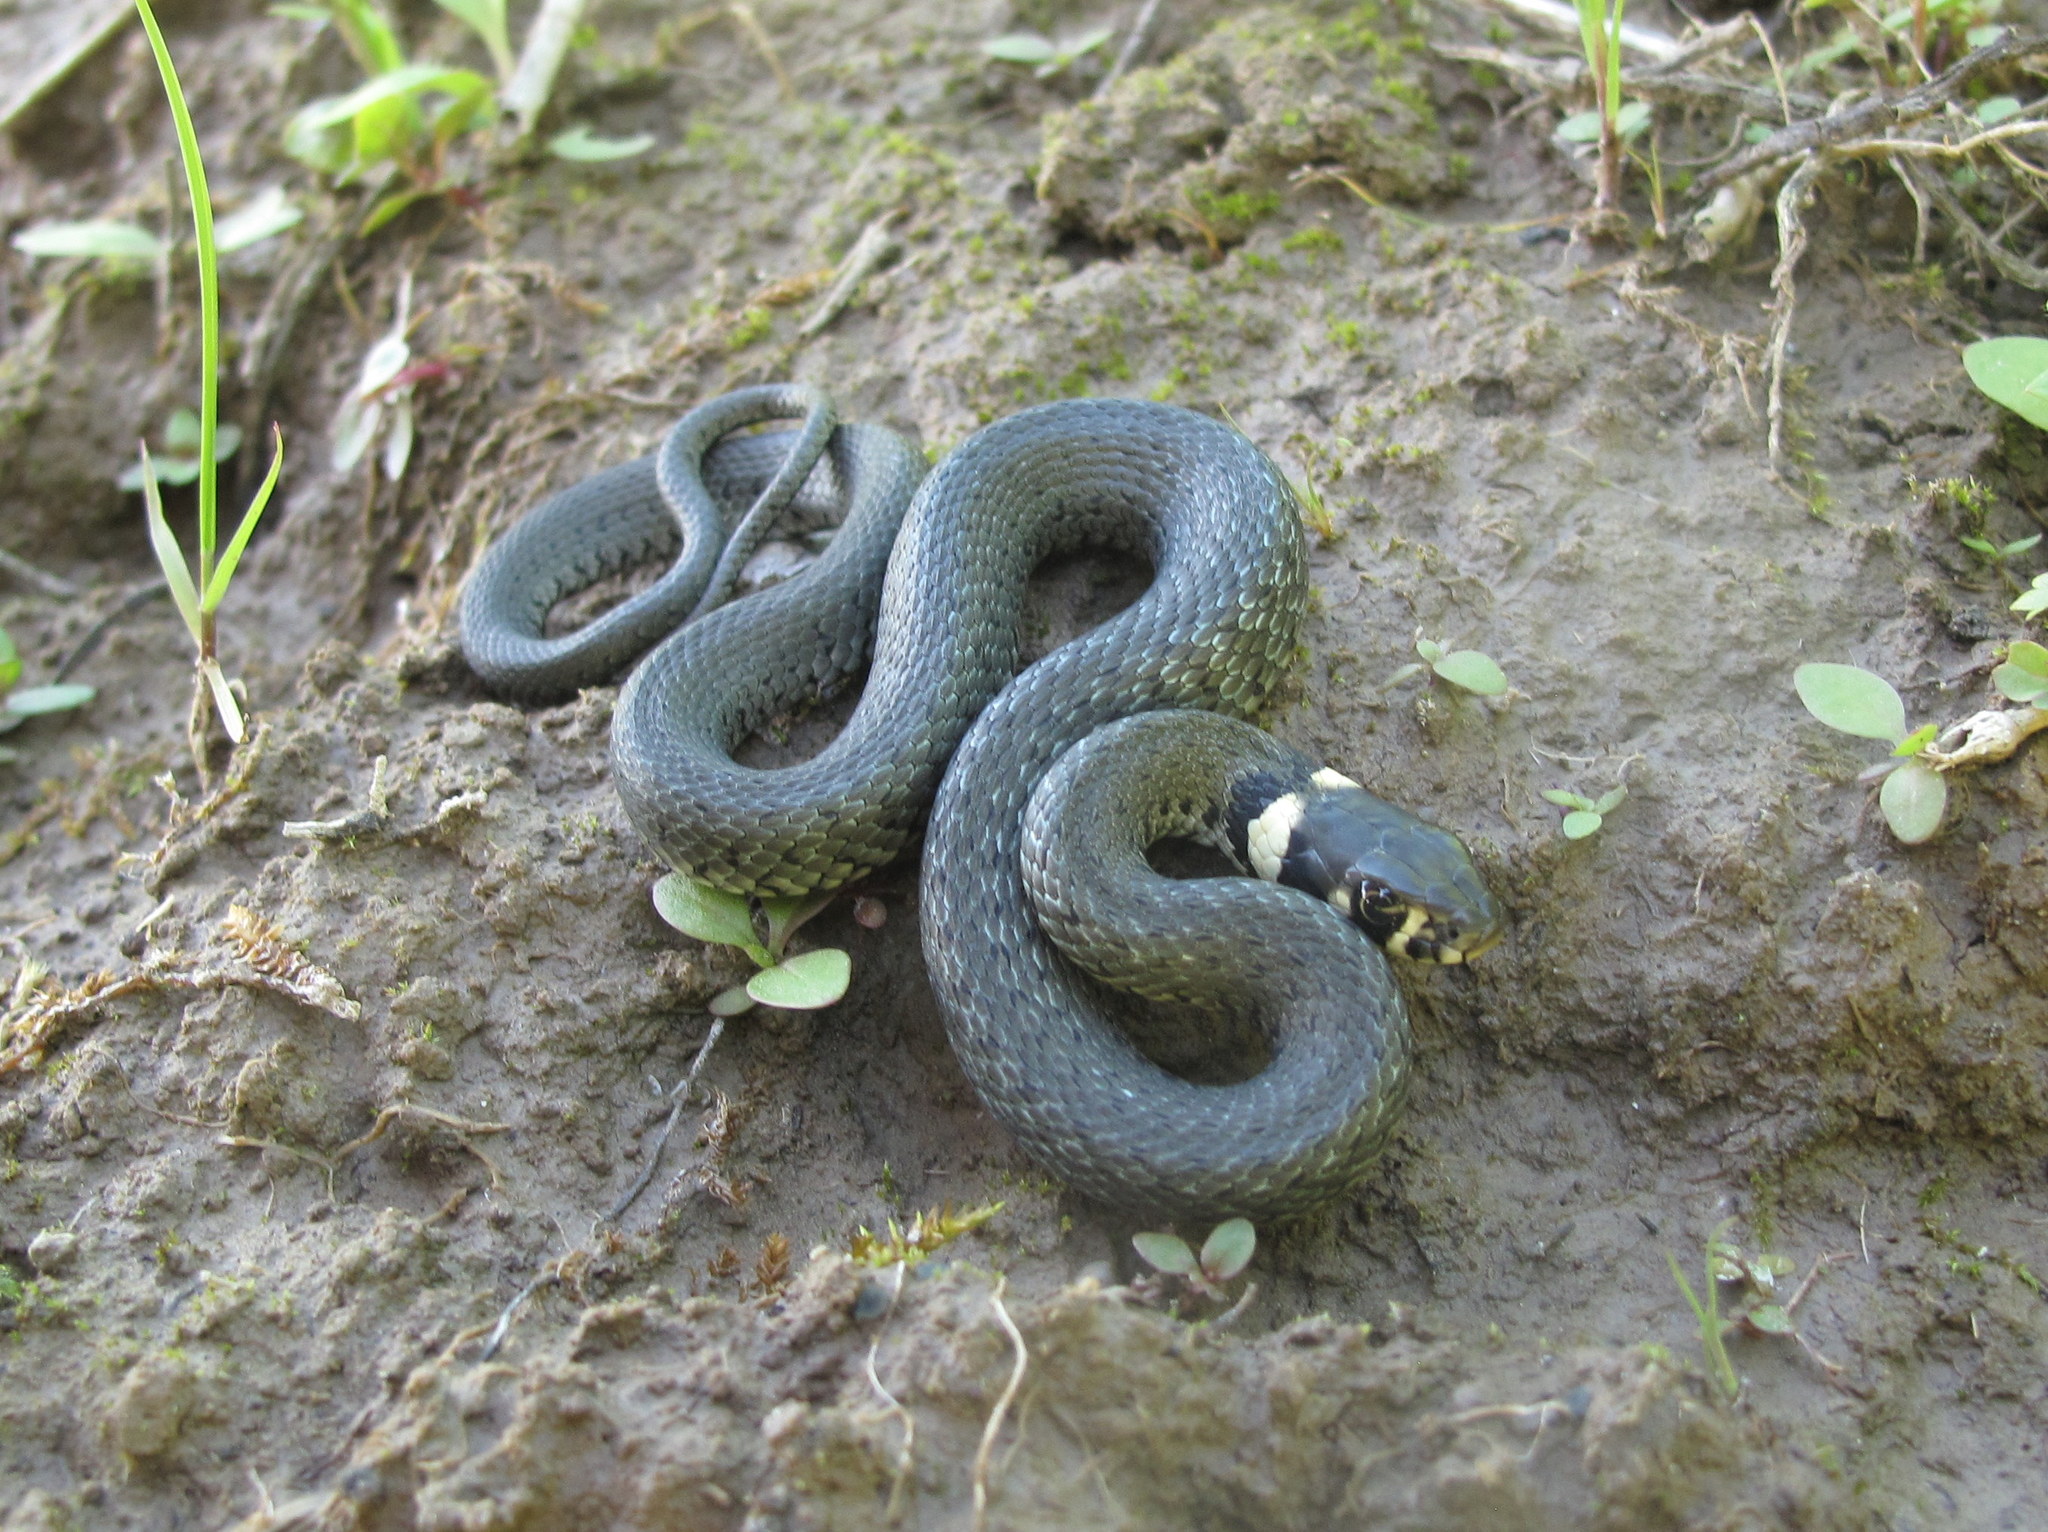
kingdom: Animalia
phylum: Chordata
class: Squamata
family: Colubridae
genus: Natrix
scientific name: Natrix natrix
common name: Grass snake
